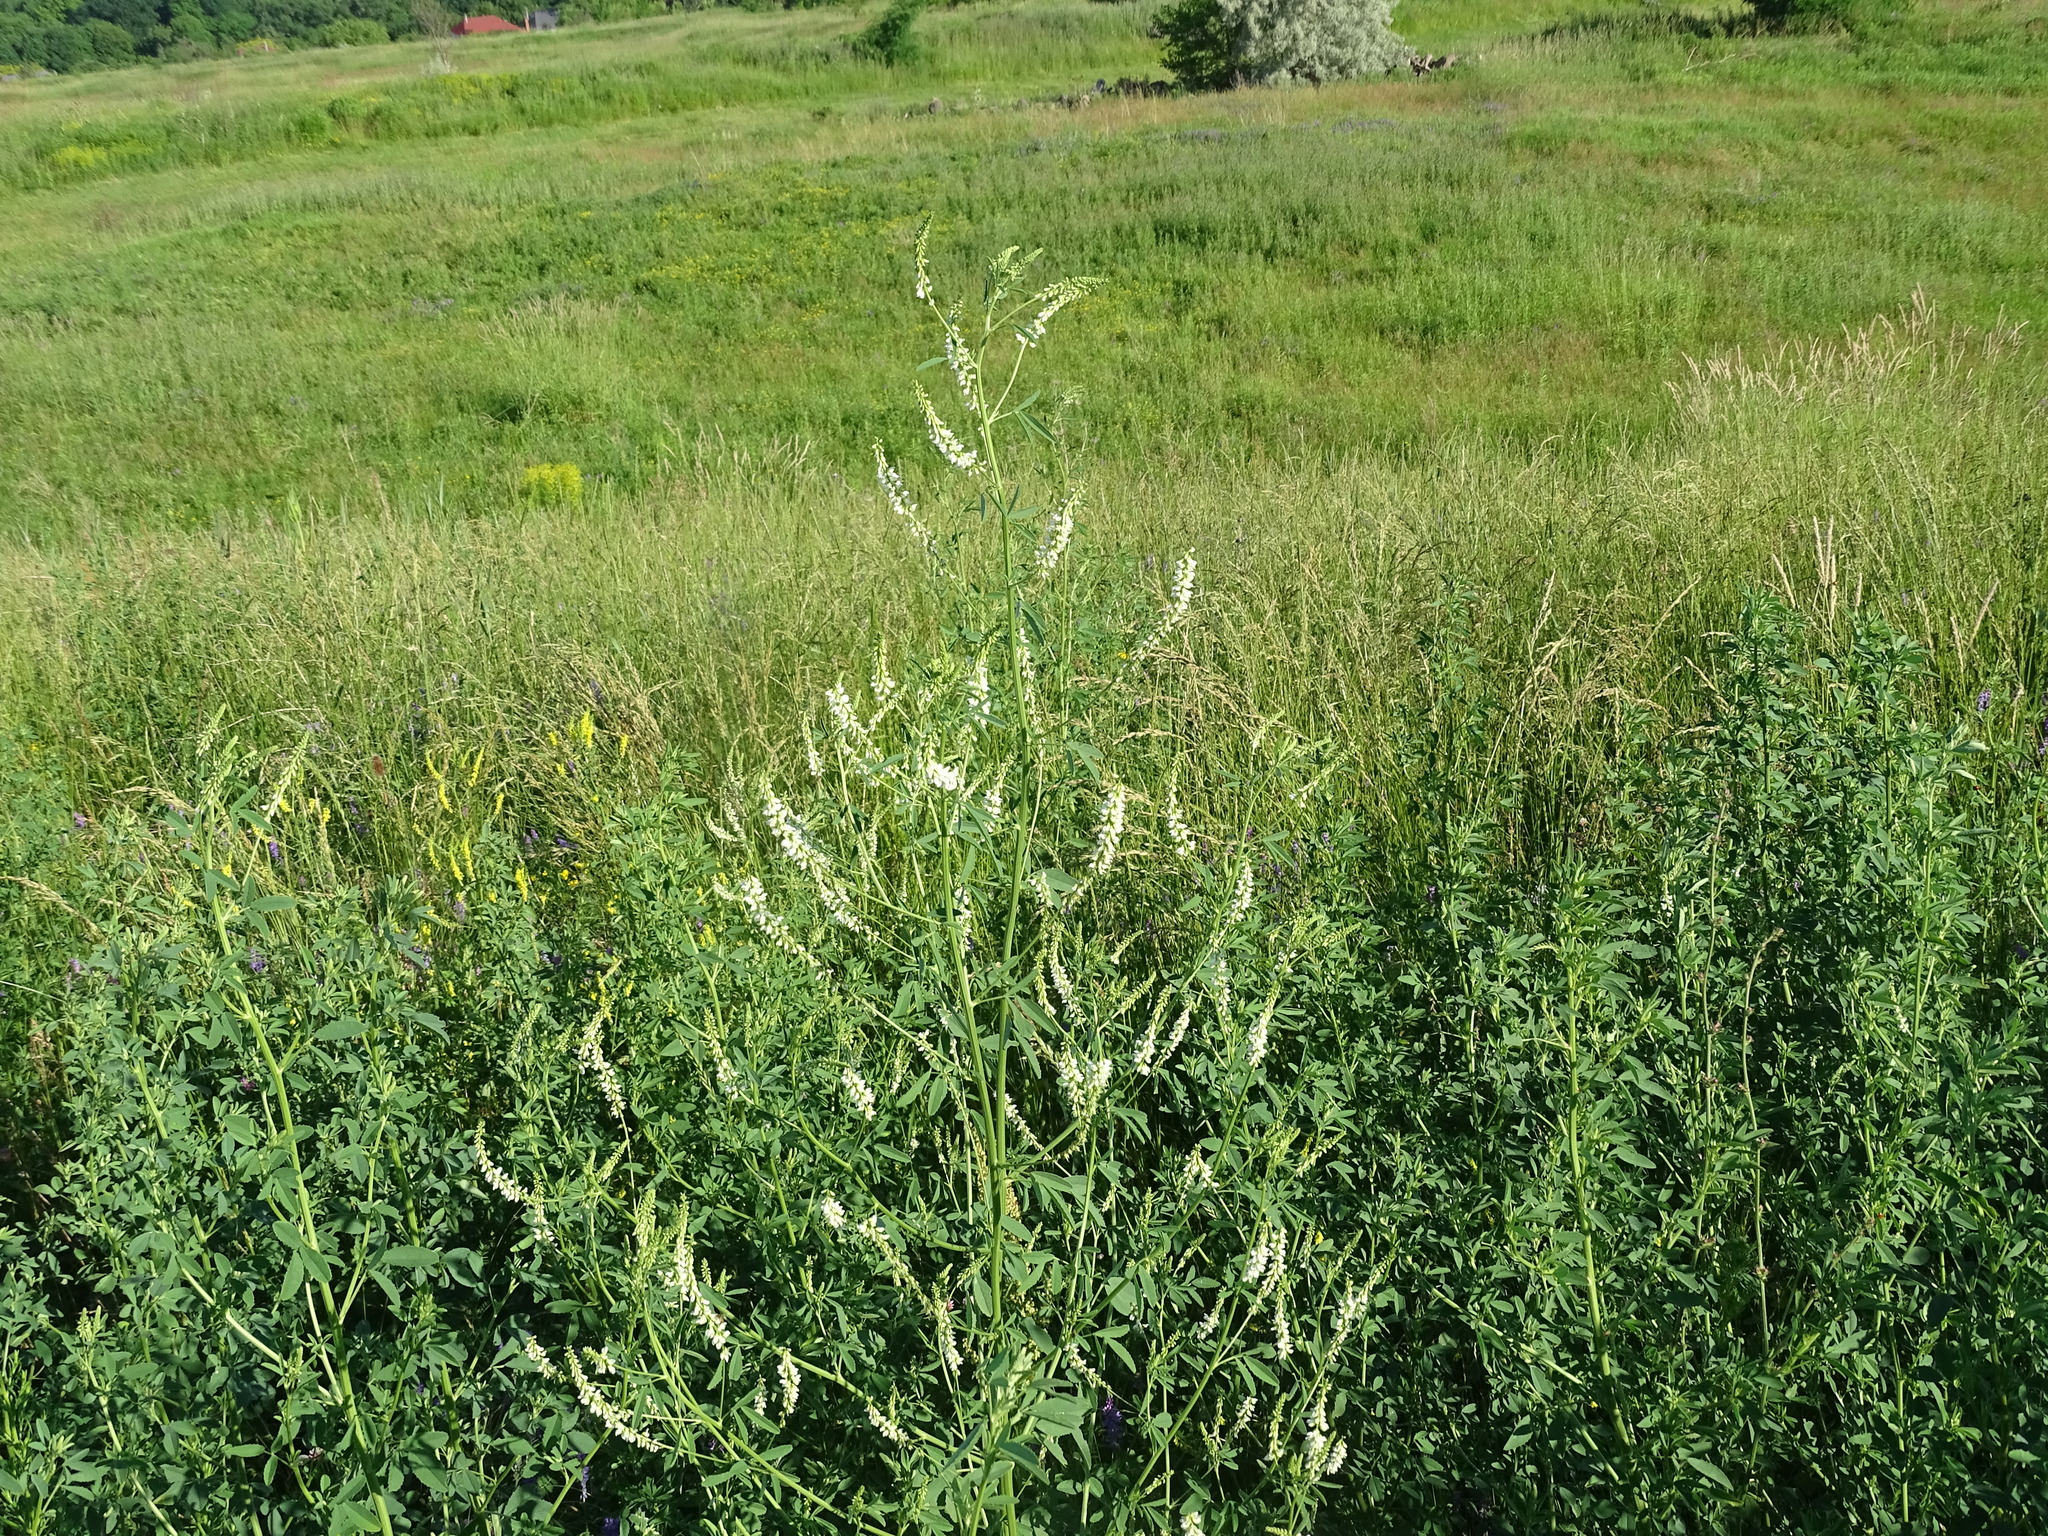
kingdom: Plantae
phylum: Tracheophyta
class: Magnoliopsida
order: Fabales
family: Fabaceae
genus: Melilotus
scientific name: Melilotus albus
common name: White melilot
